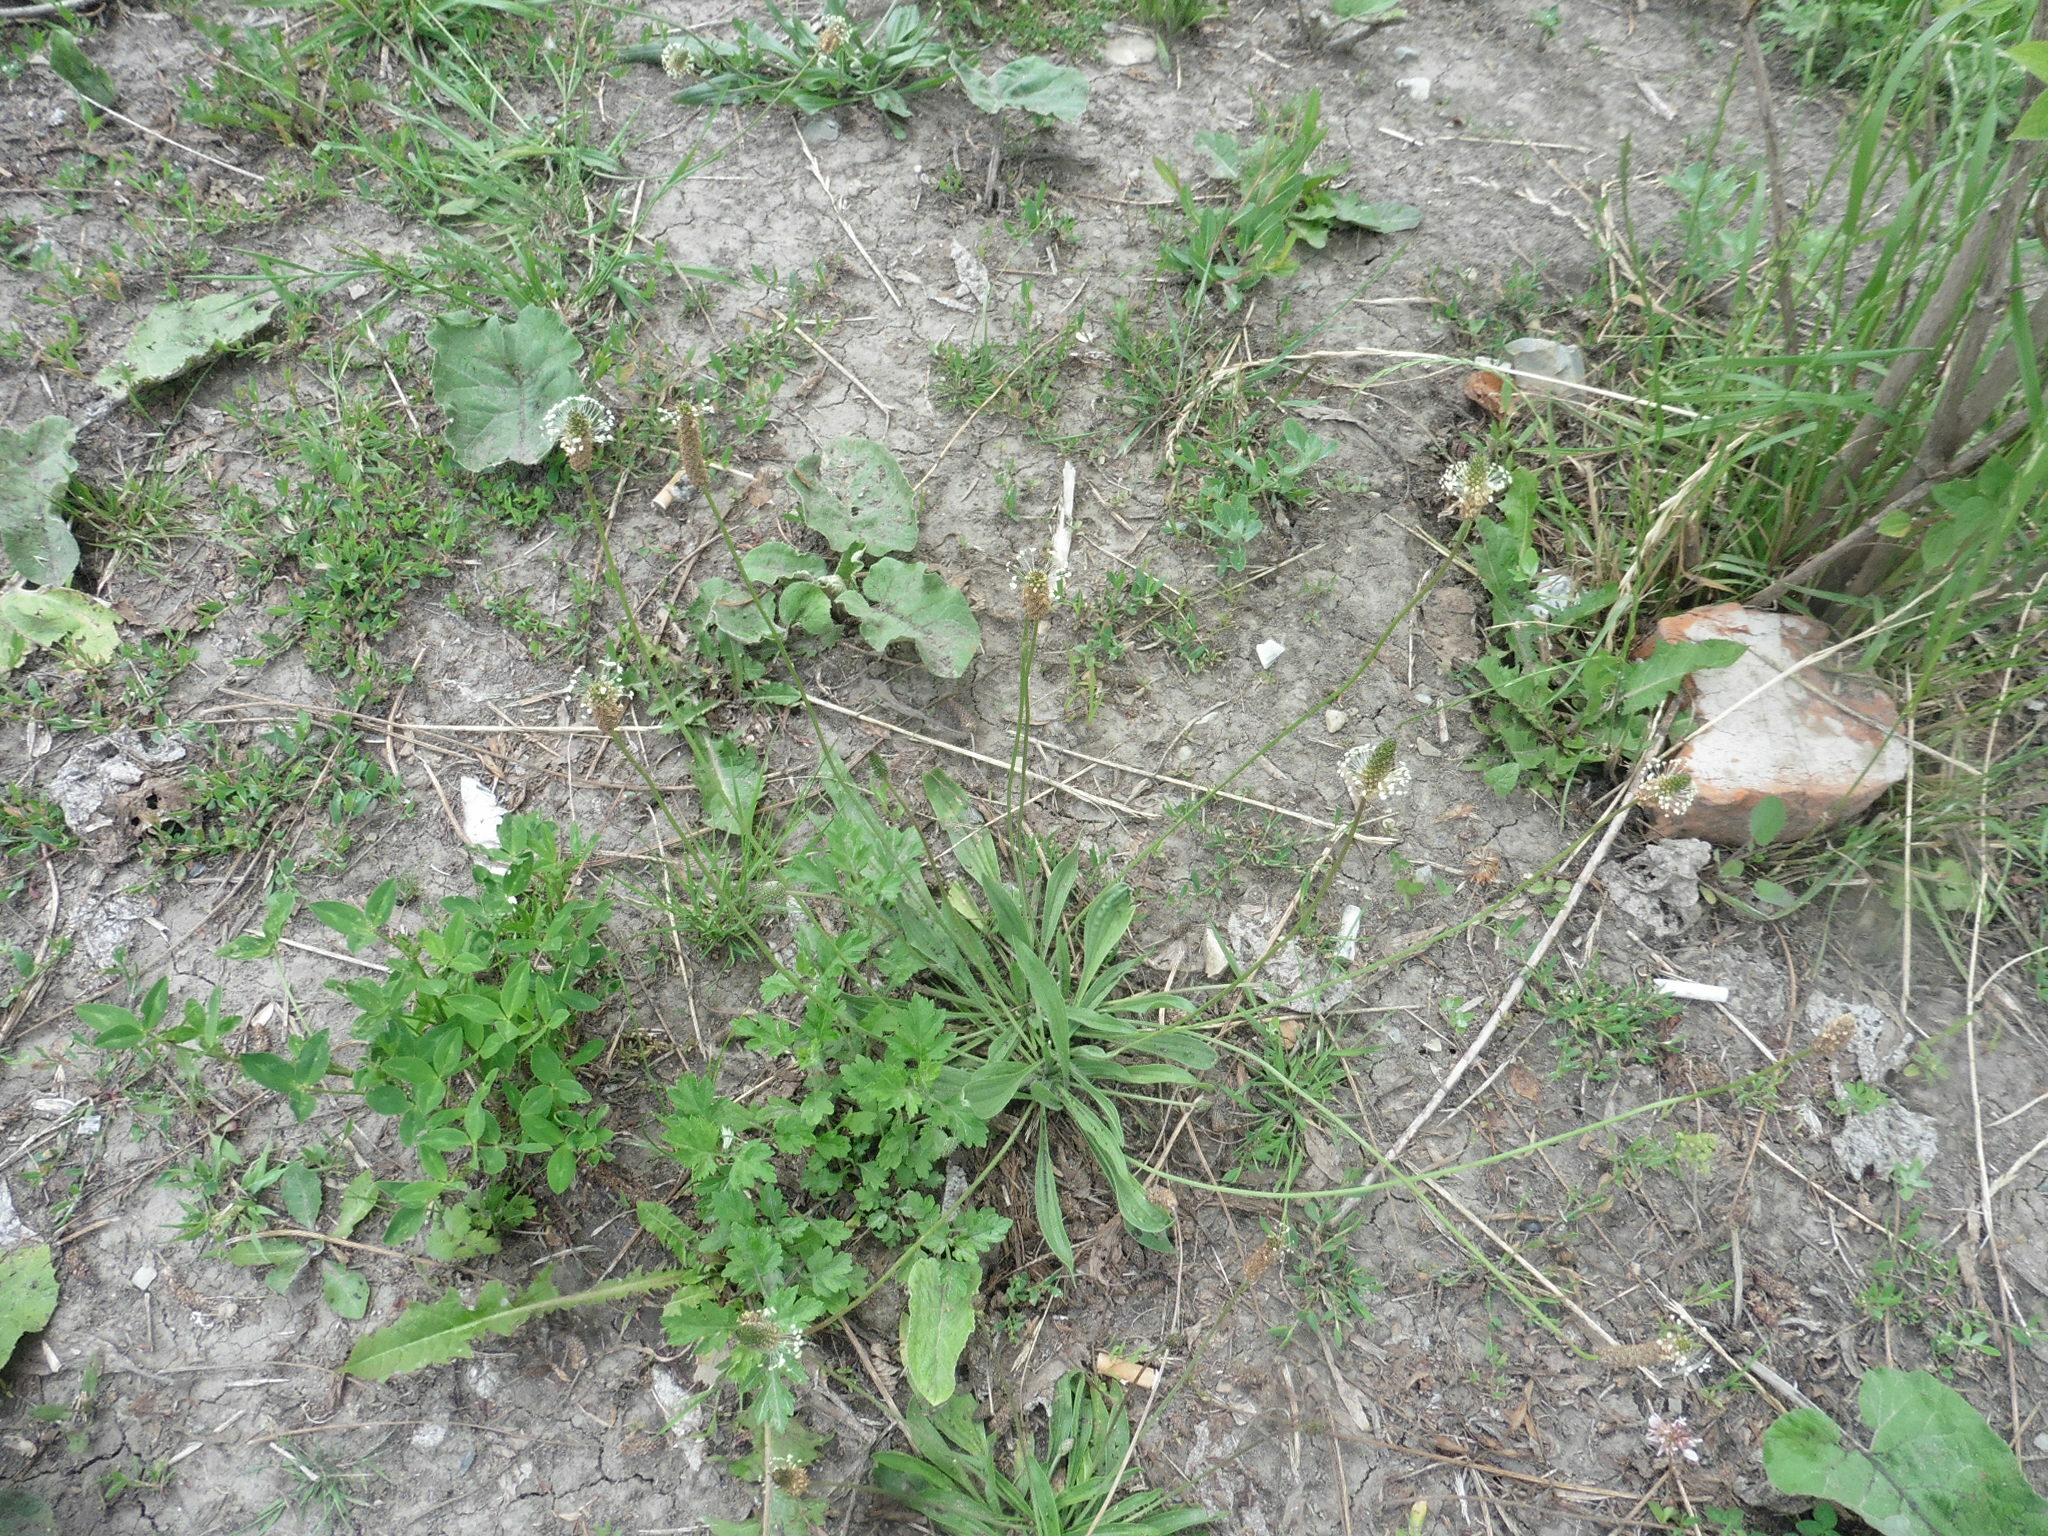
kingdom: Plantae
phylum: Tracheophyta
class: Magnoliopsida
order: Lamiales
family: Plantaginaceae
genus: Plantago
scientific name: Plantago lanceolata
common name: Ribwort plantain
